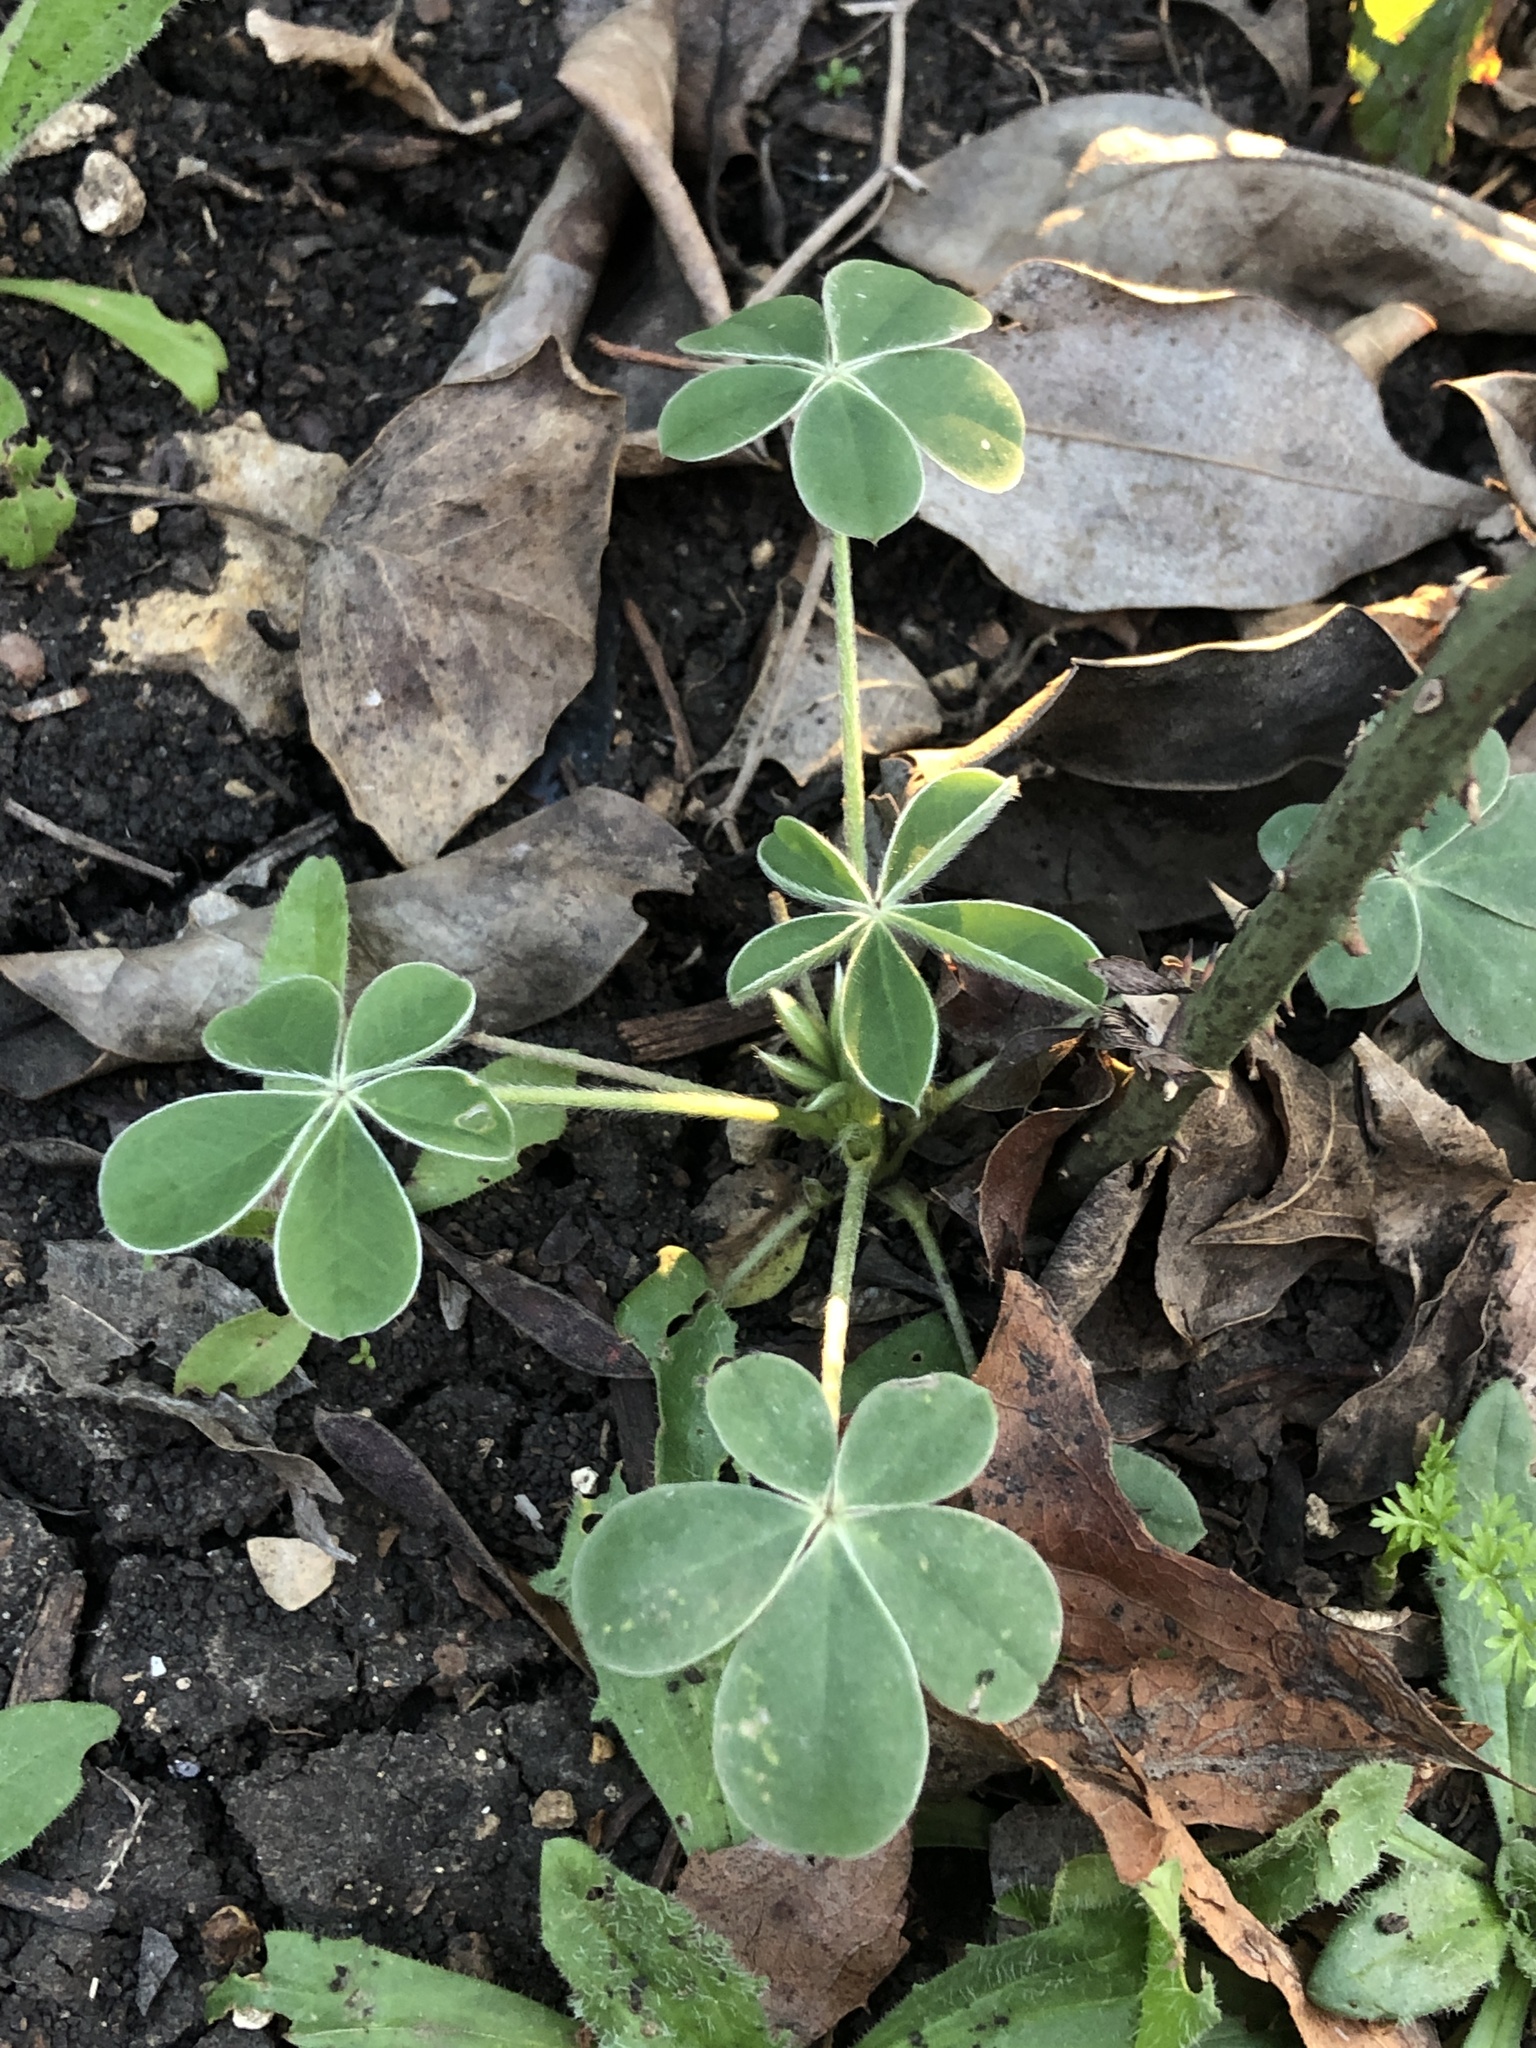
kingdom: Plantae
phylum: Tracheophyta
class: Magnoliopsida
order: Fabales
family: Fabaceae
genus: Lupinus
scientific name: Lupinus texensis
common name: Texas bluebonnet
